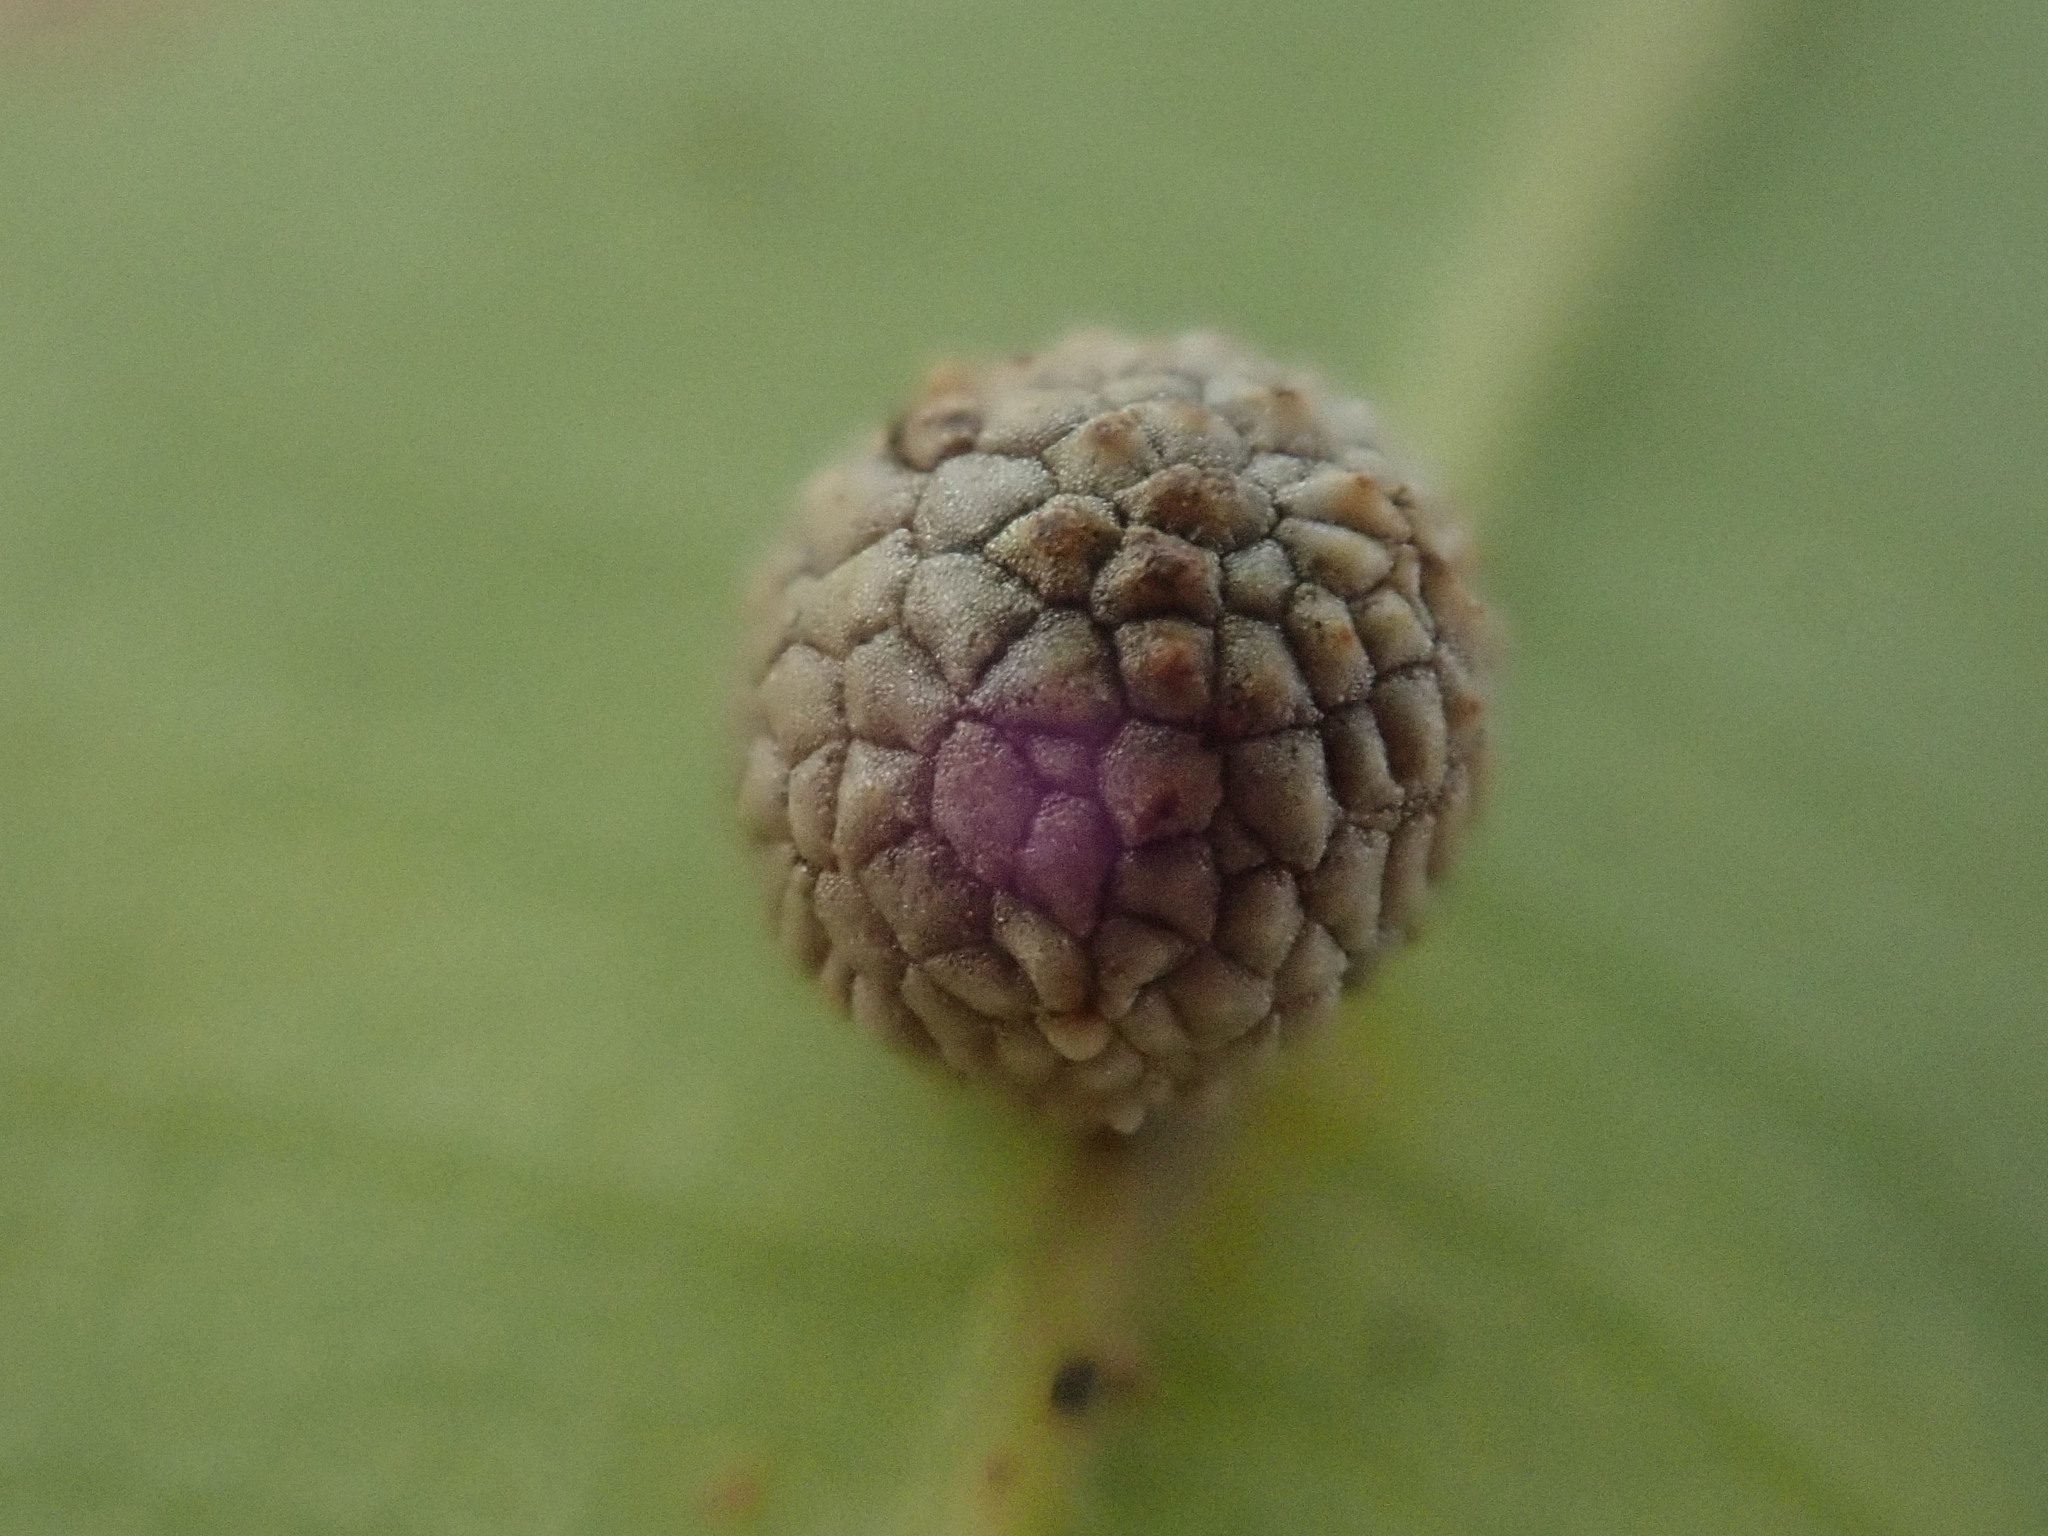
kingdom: Animalia
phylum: Arthropoda
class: Insecta
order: Hymenoptera
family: Cynipidae
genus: Acraspis
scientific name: Acraspis quercushirta
